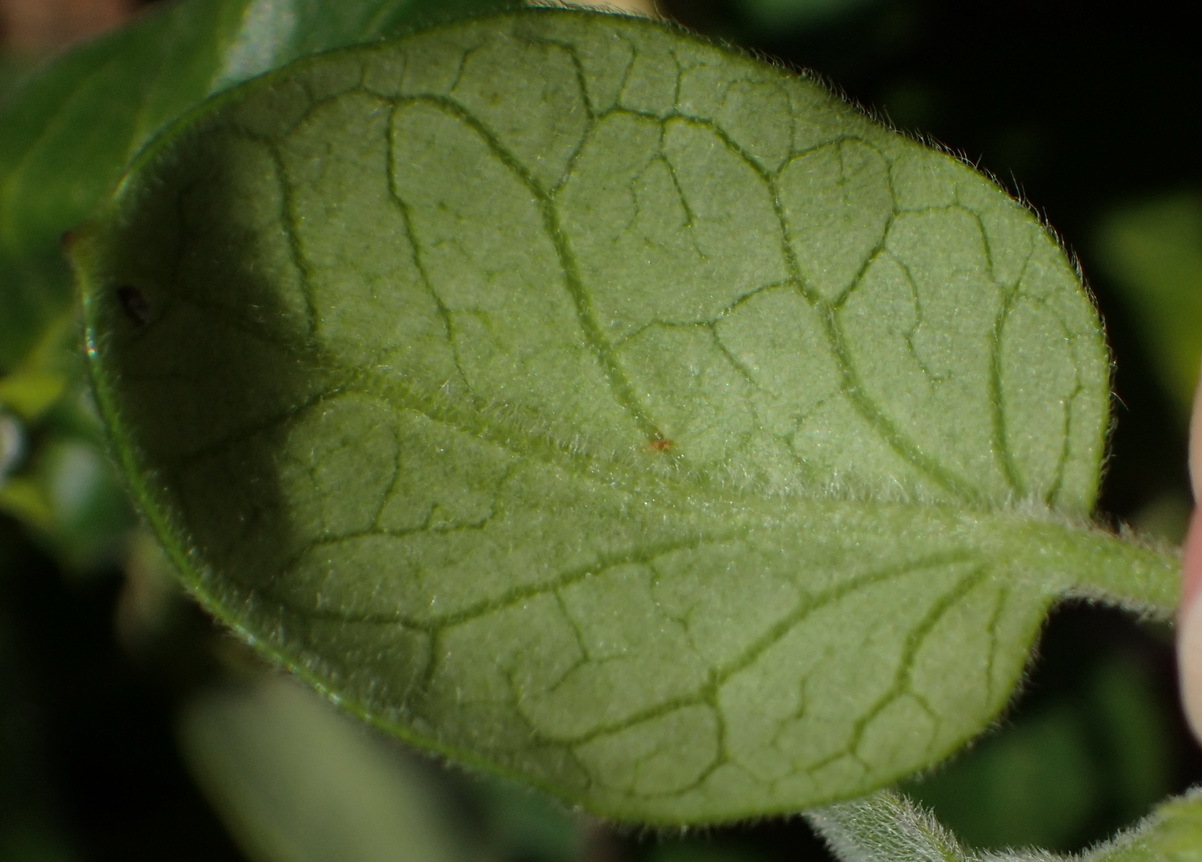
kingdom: Plantae
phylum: Tracheophyta
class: Magnoliopsida
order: Gentianales
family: Apocynaceae
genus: Cynanchum
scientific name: Cynanchum obtusifolium
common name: Monkey-rope
